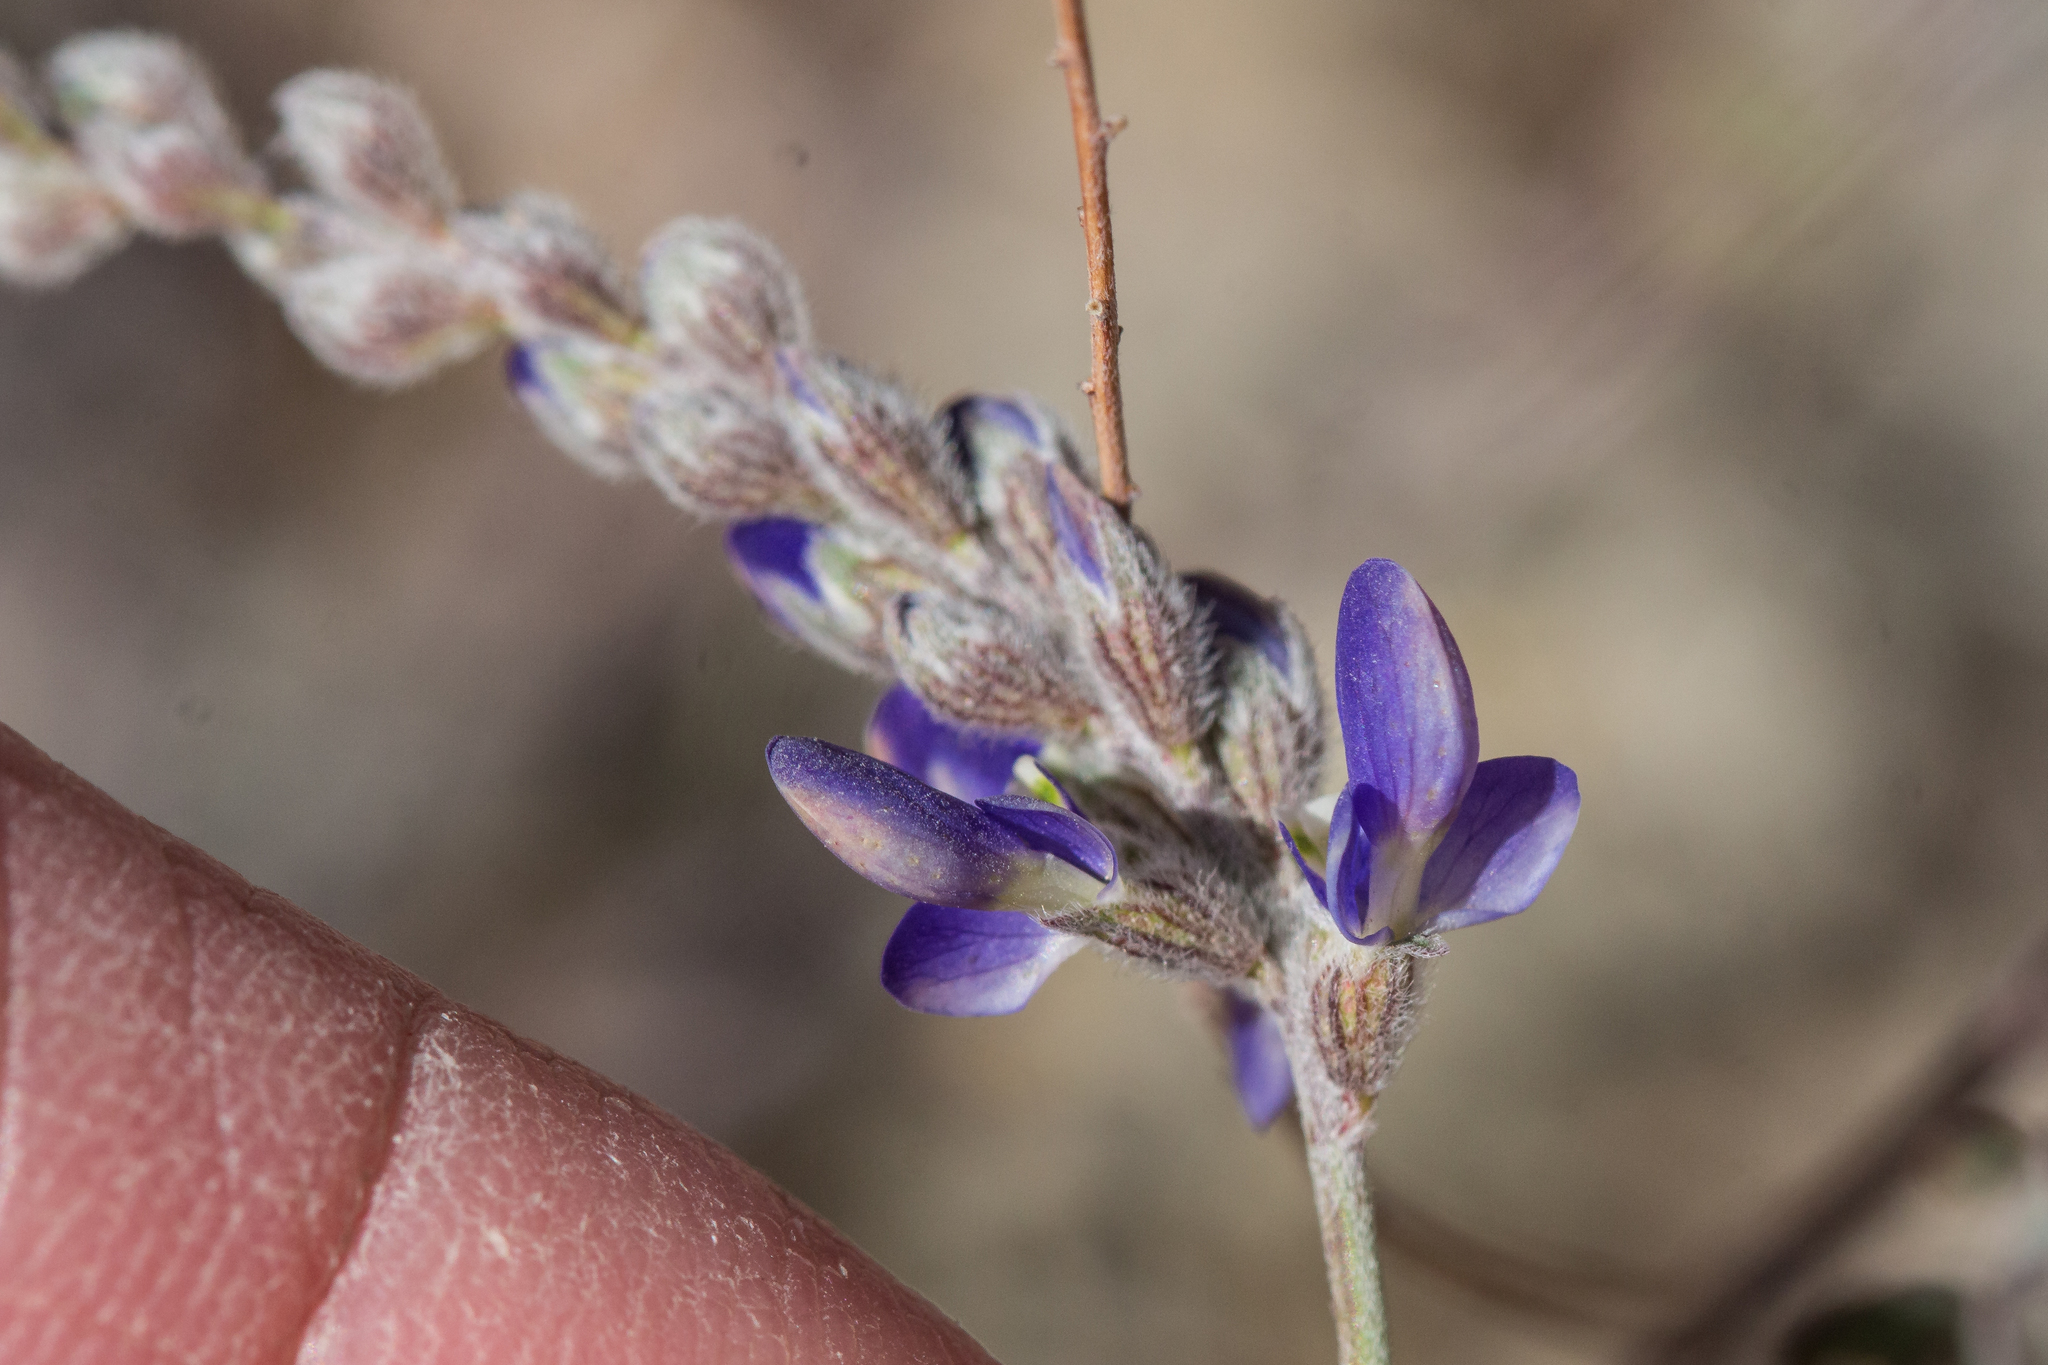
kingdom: Plantae
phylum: Tracheophyta
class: Magnoliopsida
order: Fabales
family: Fabaceae
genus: Marina
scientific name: Marina parryi
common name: Parry's marina
